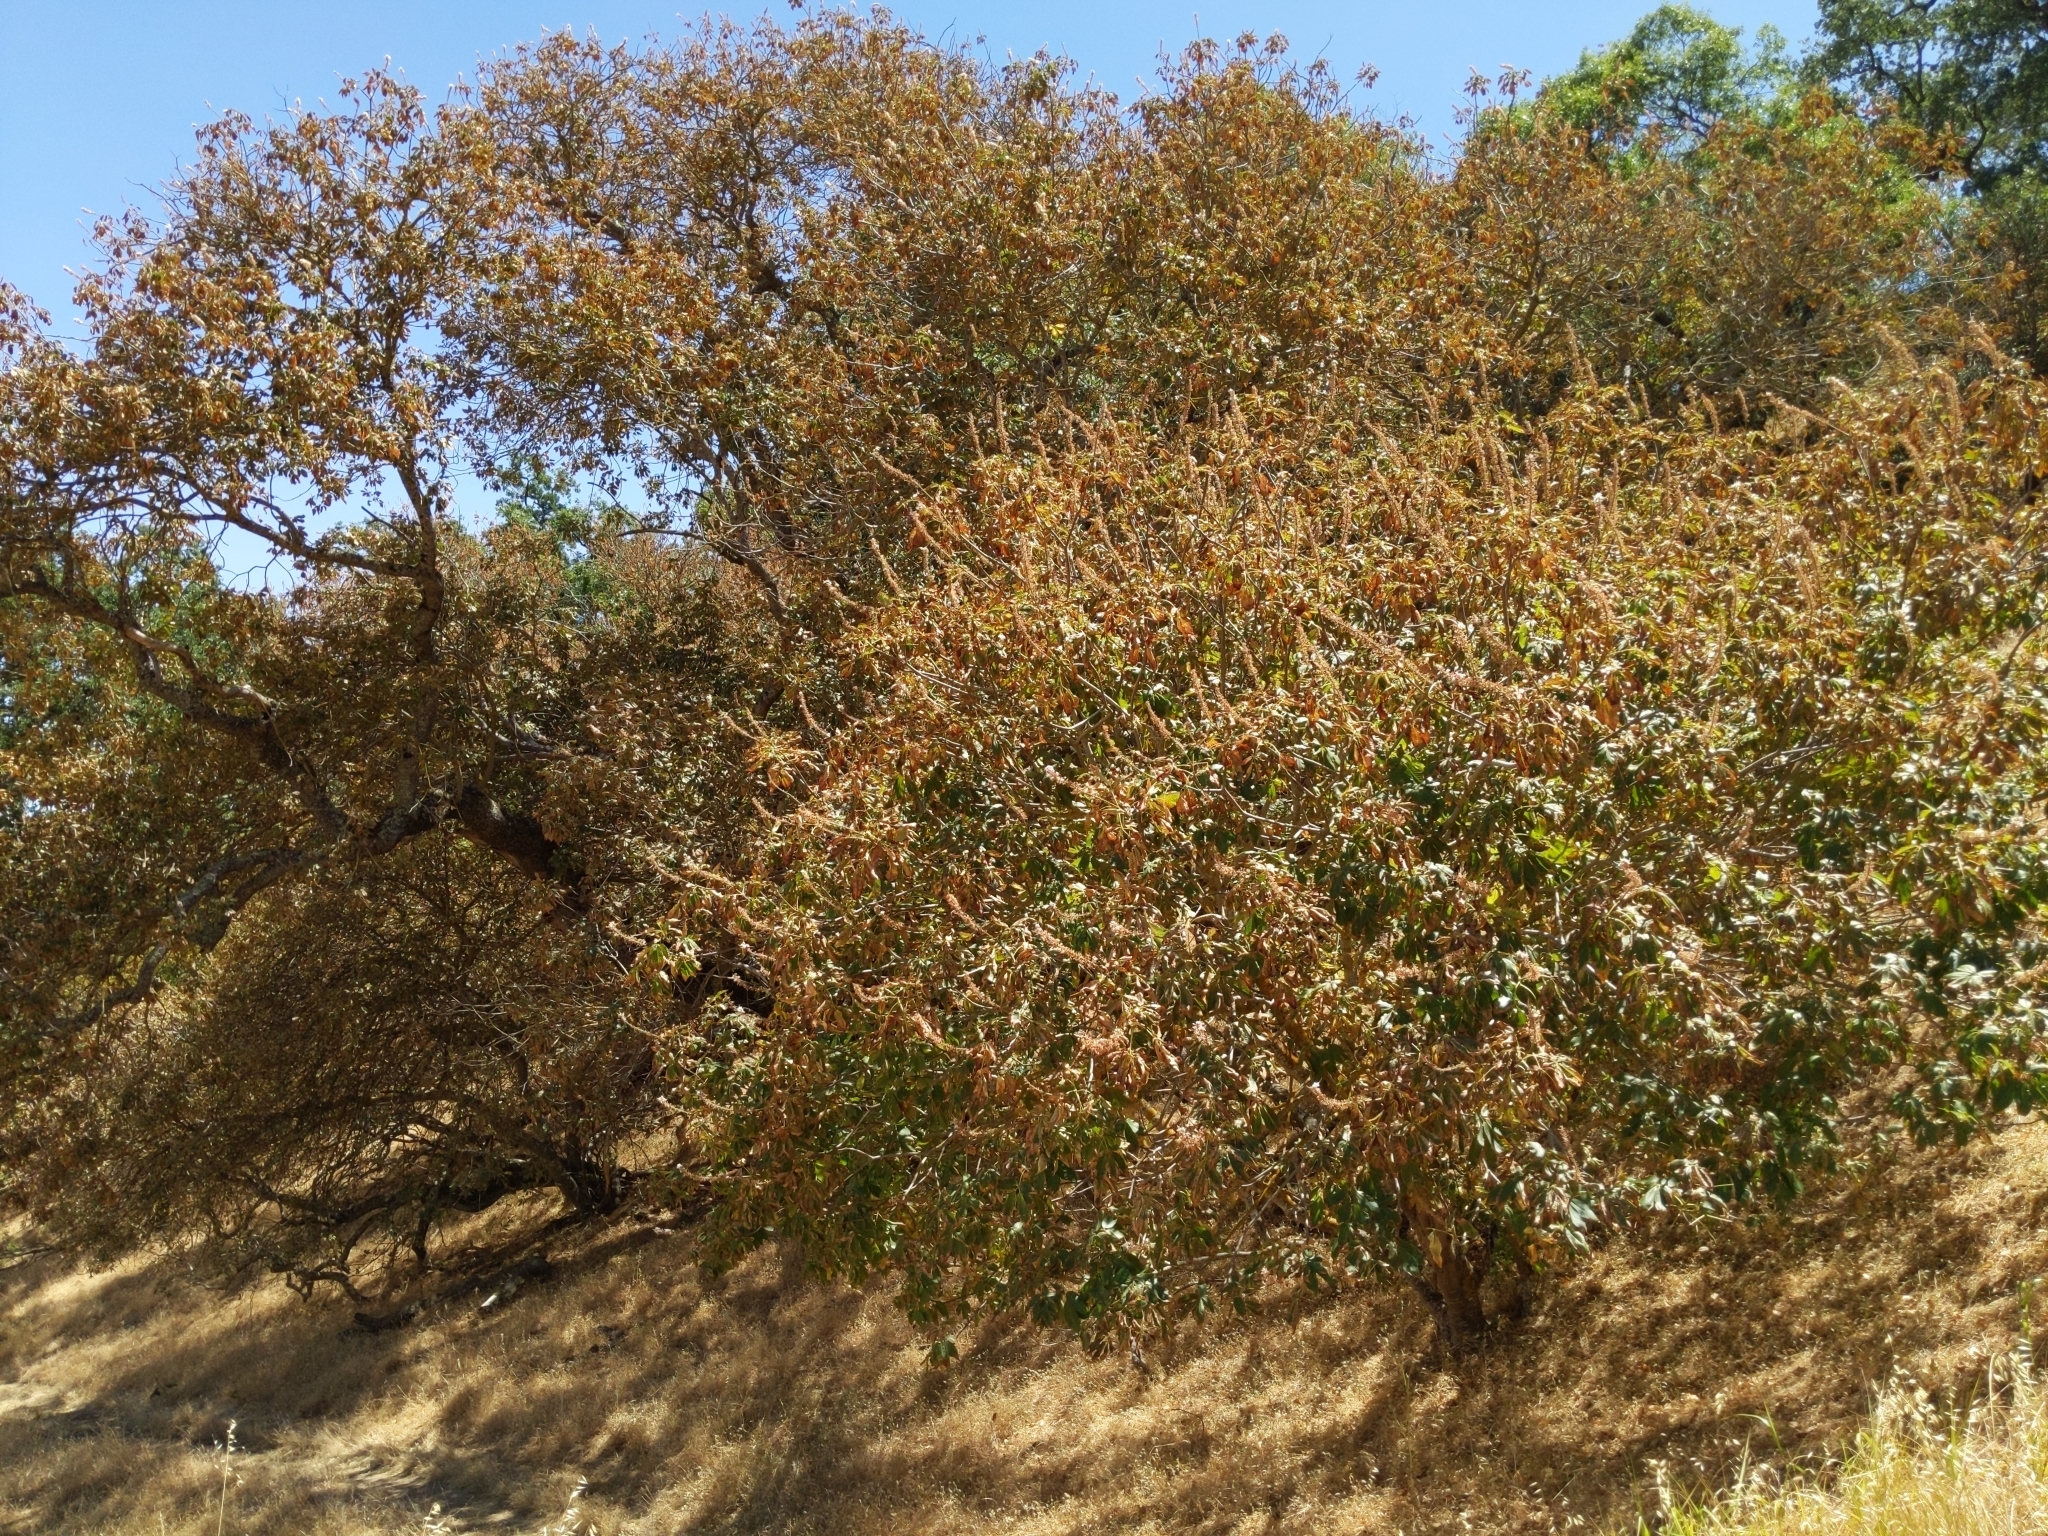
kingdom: Plantae
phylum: Tracheophyta
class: Magnoliopsida
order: Sapindales
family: Sapindaceae
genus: Aesculus
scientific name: Aesculus californica
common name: California buckeye
